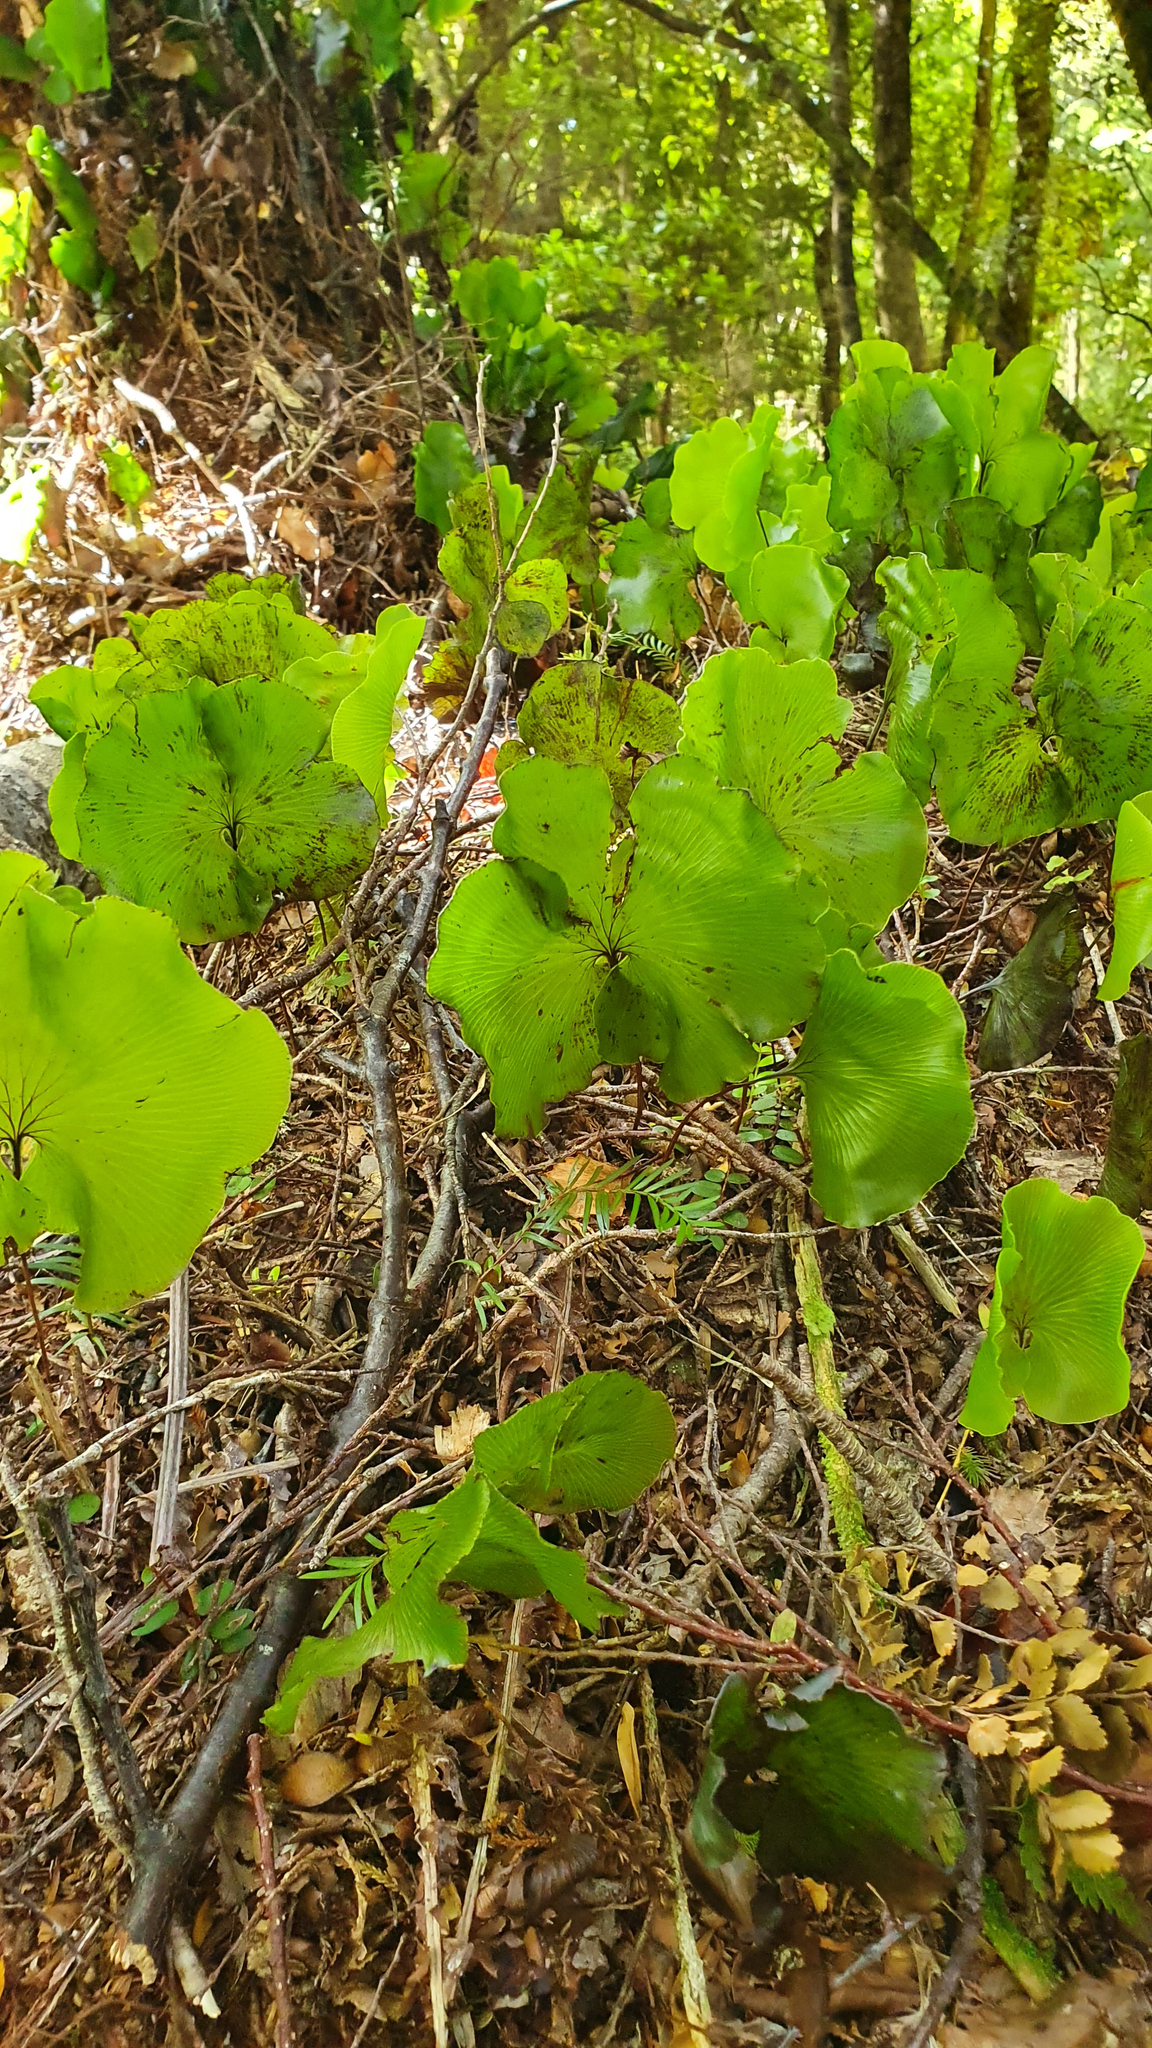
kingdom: Plantae
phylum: Tracheophyta
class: Polypodiopsida
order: Hymenophyllales
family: Hymenophyllaceae
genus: Hymenophyllum
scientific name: Hymenophyllum nephrophyllum
